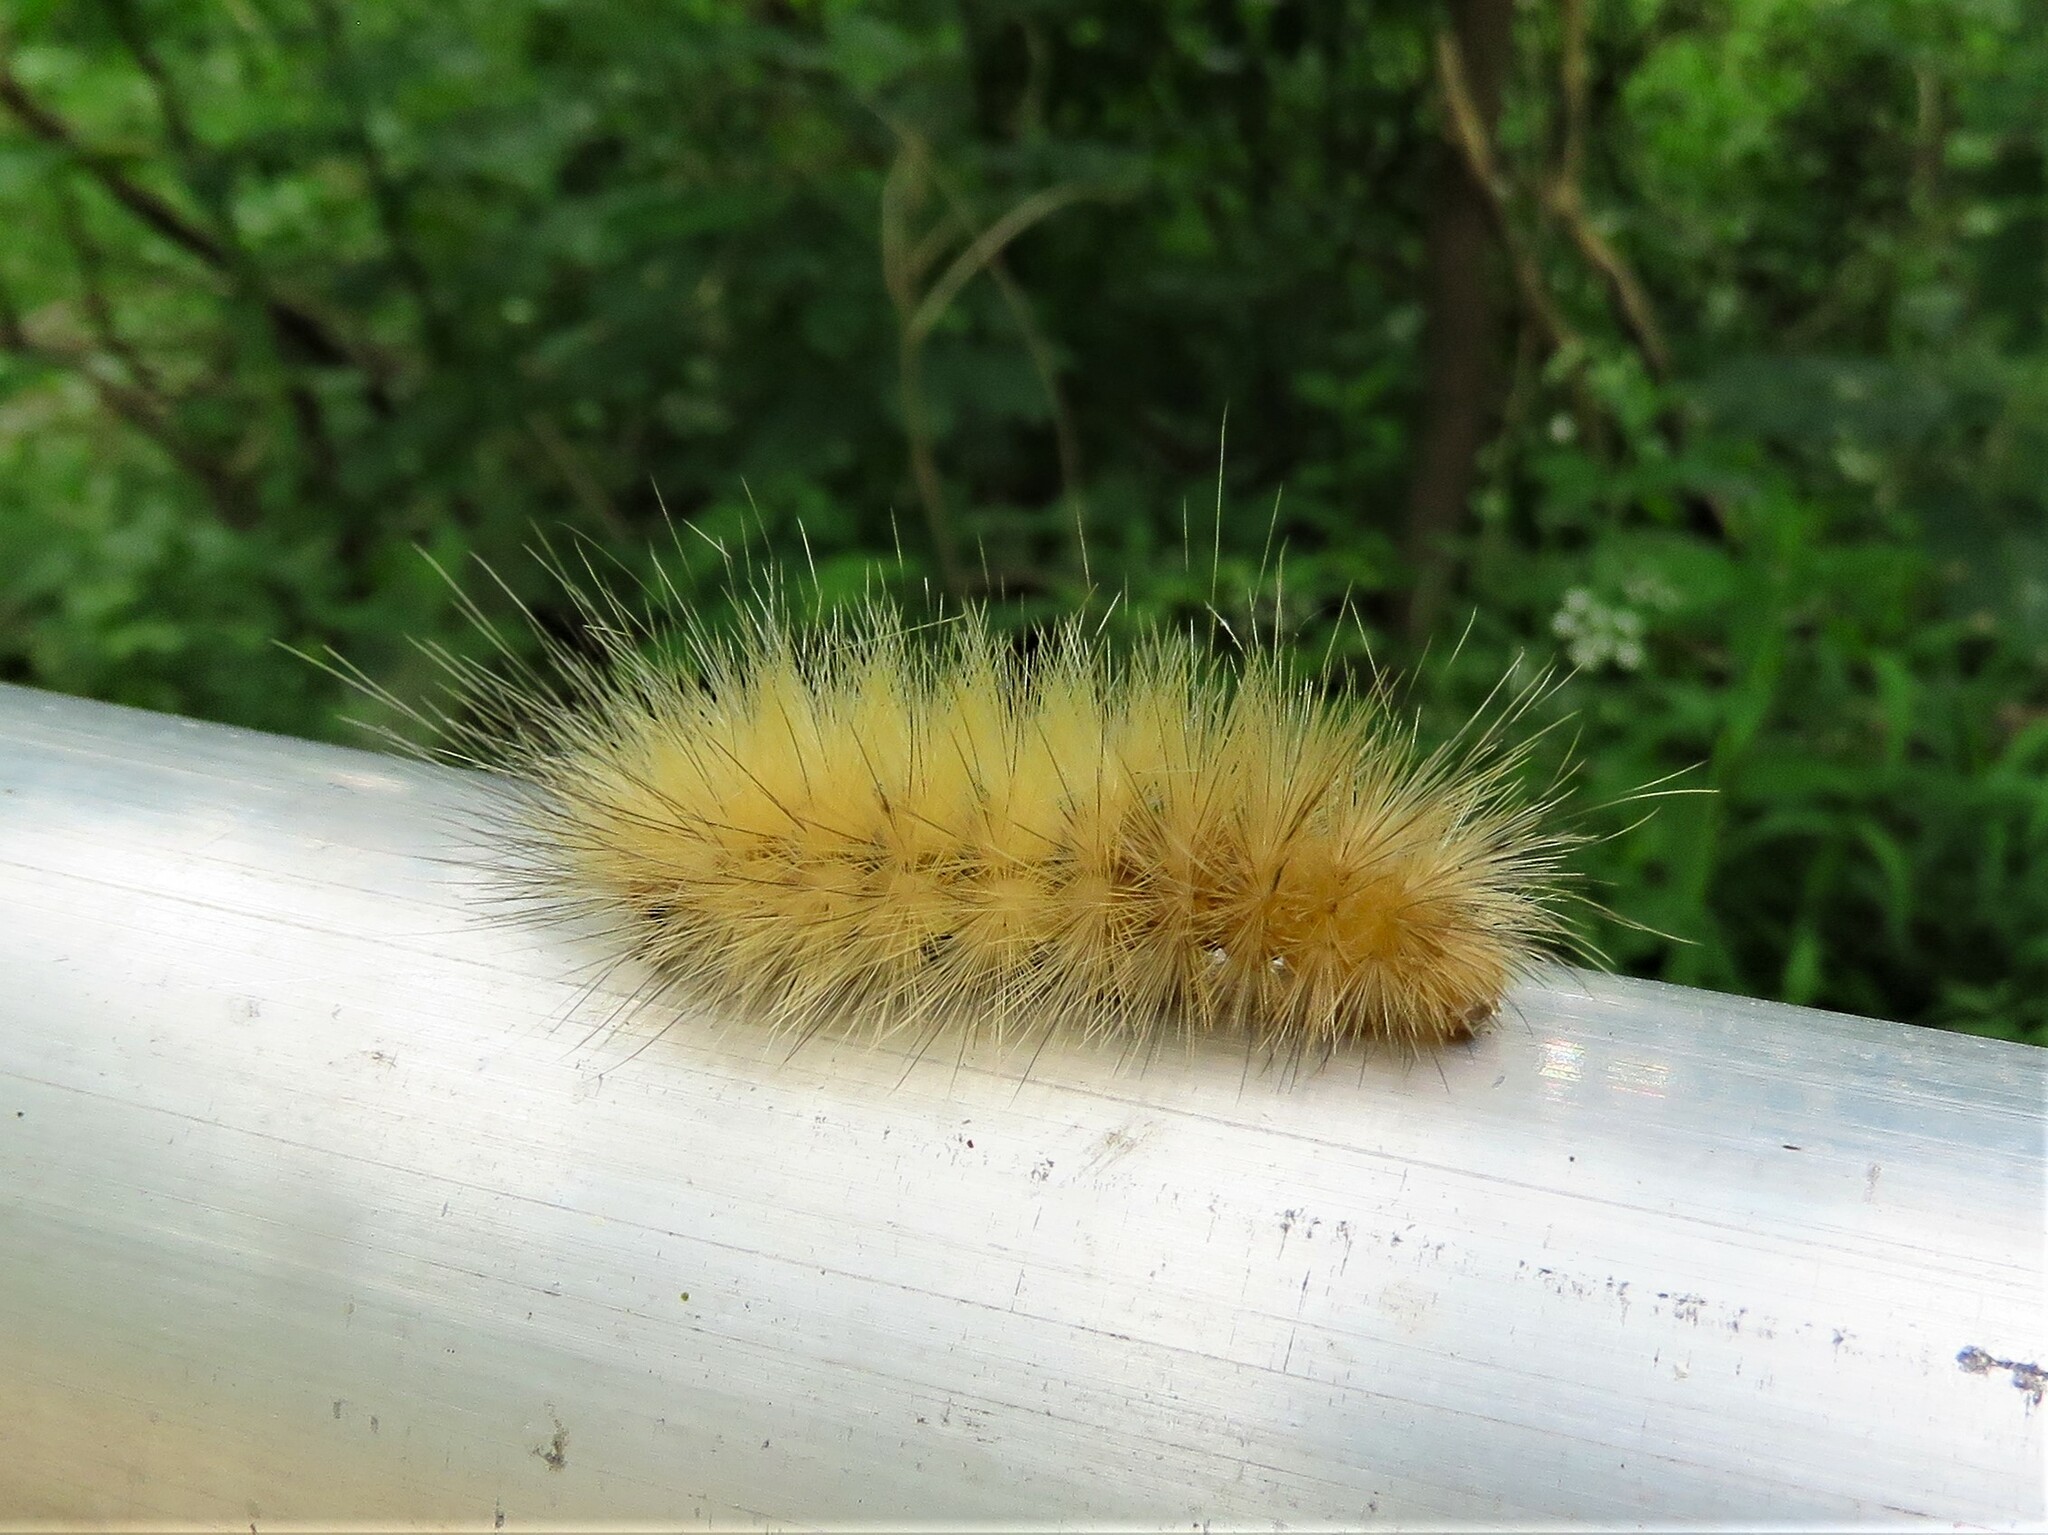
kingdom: Animalia
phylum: Arthropoda
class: Insecta
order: Lepidoptera
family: Erebidae
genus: Spilosoma
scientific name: Spilosoma virginica
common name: Virginia tiger moth
